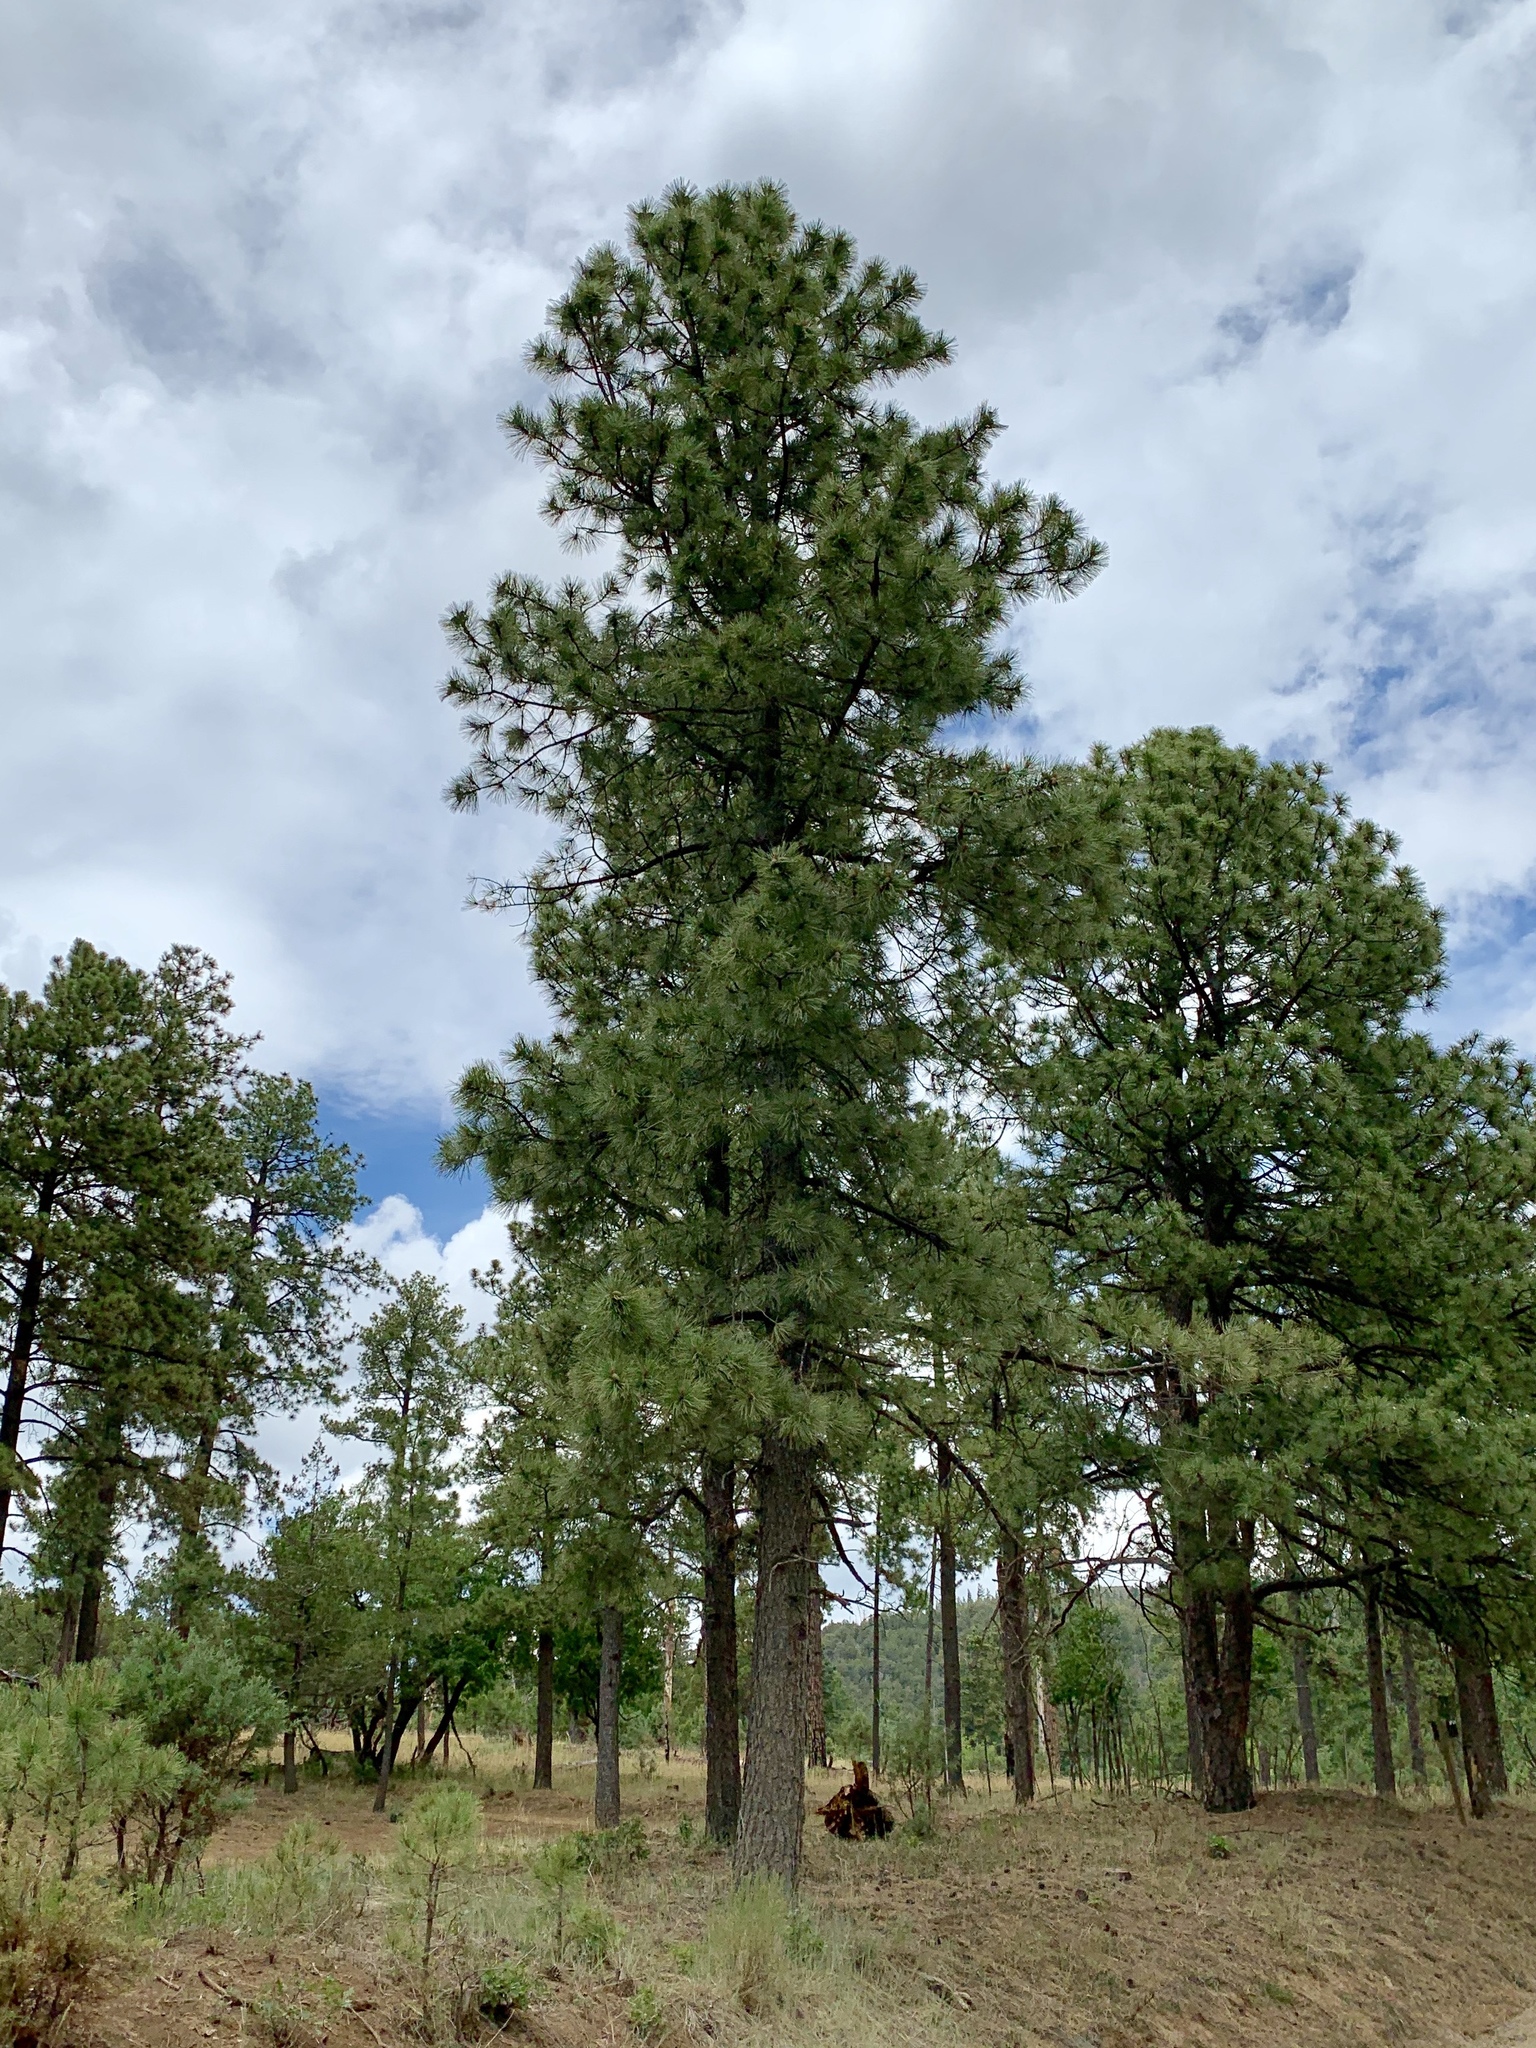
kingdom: Plantae
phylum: Tracheophyta
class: Pinopsida
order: Pinales
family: Pinaceae
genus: Pinus
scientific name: Pinus ponderosa
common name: Western yellow-pine
